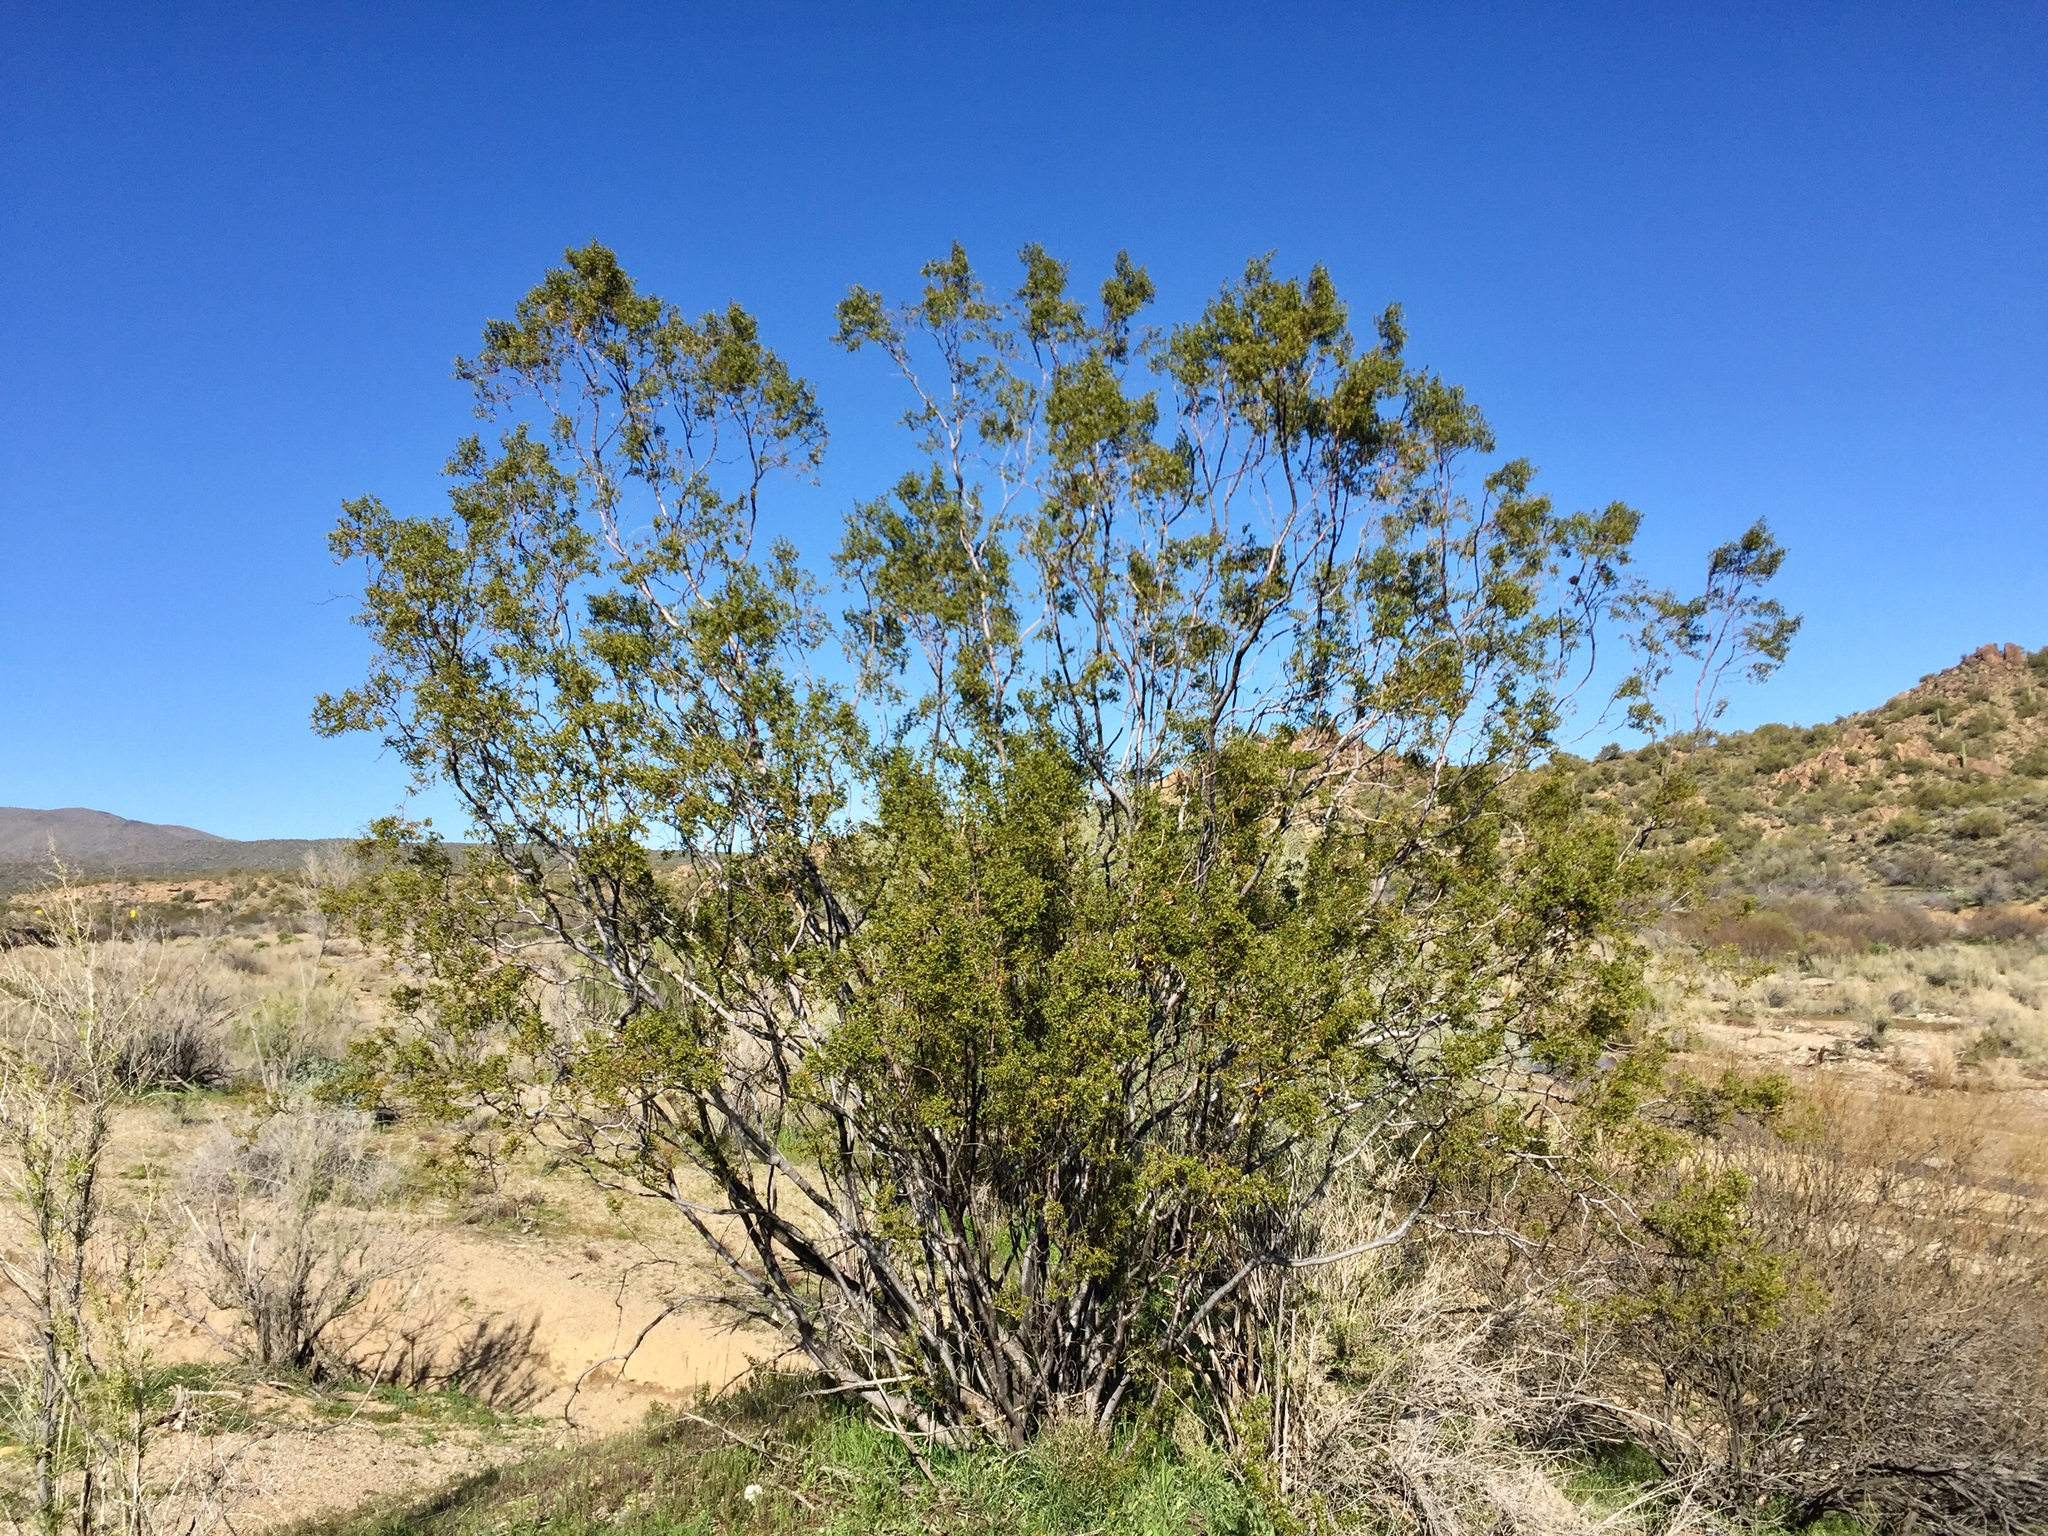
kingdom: Plantae
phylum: Tracheophyta
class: Magnoliopsida
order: Zygophyllales
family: Zygophyllaceae
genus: Larrea
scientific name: Larrea tridentata
